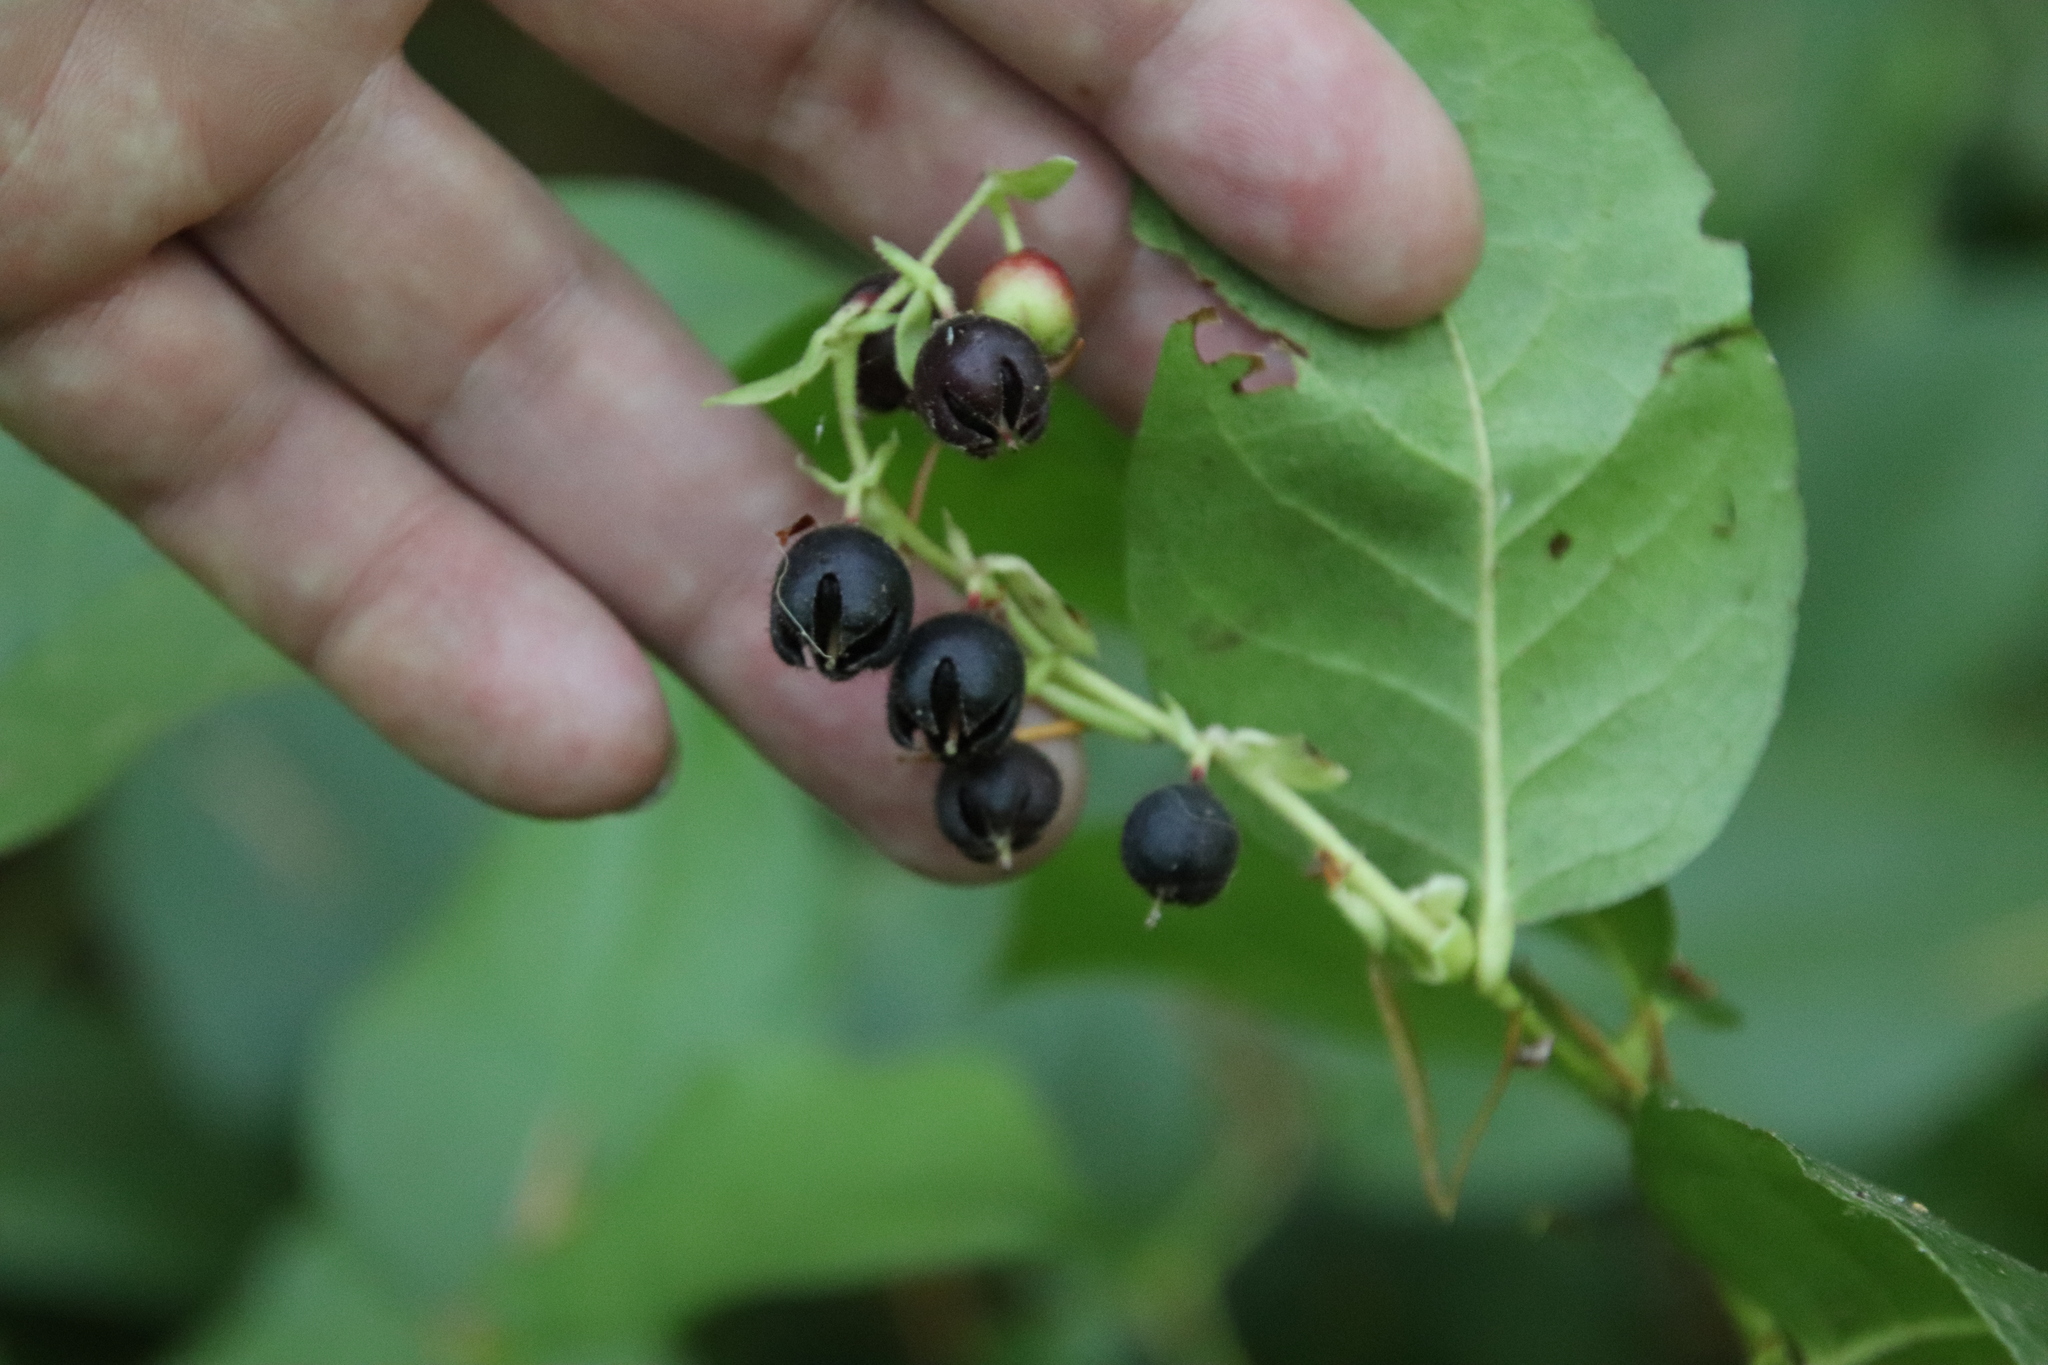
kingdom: Plantae
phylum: Tracheophyta
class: Magnoliopsida
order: Ericales
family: Ericaceae
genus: Gaultheria
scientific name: Gaultheria shallon
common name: Shallon
